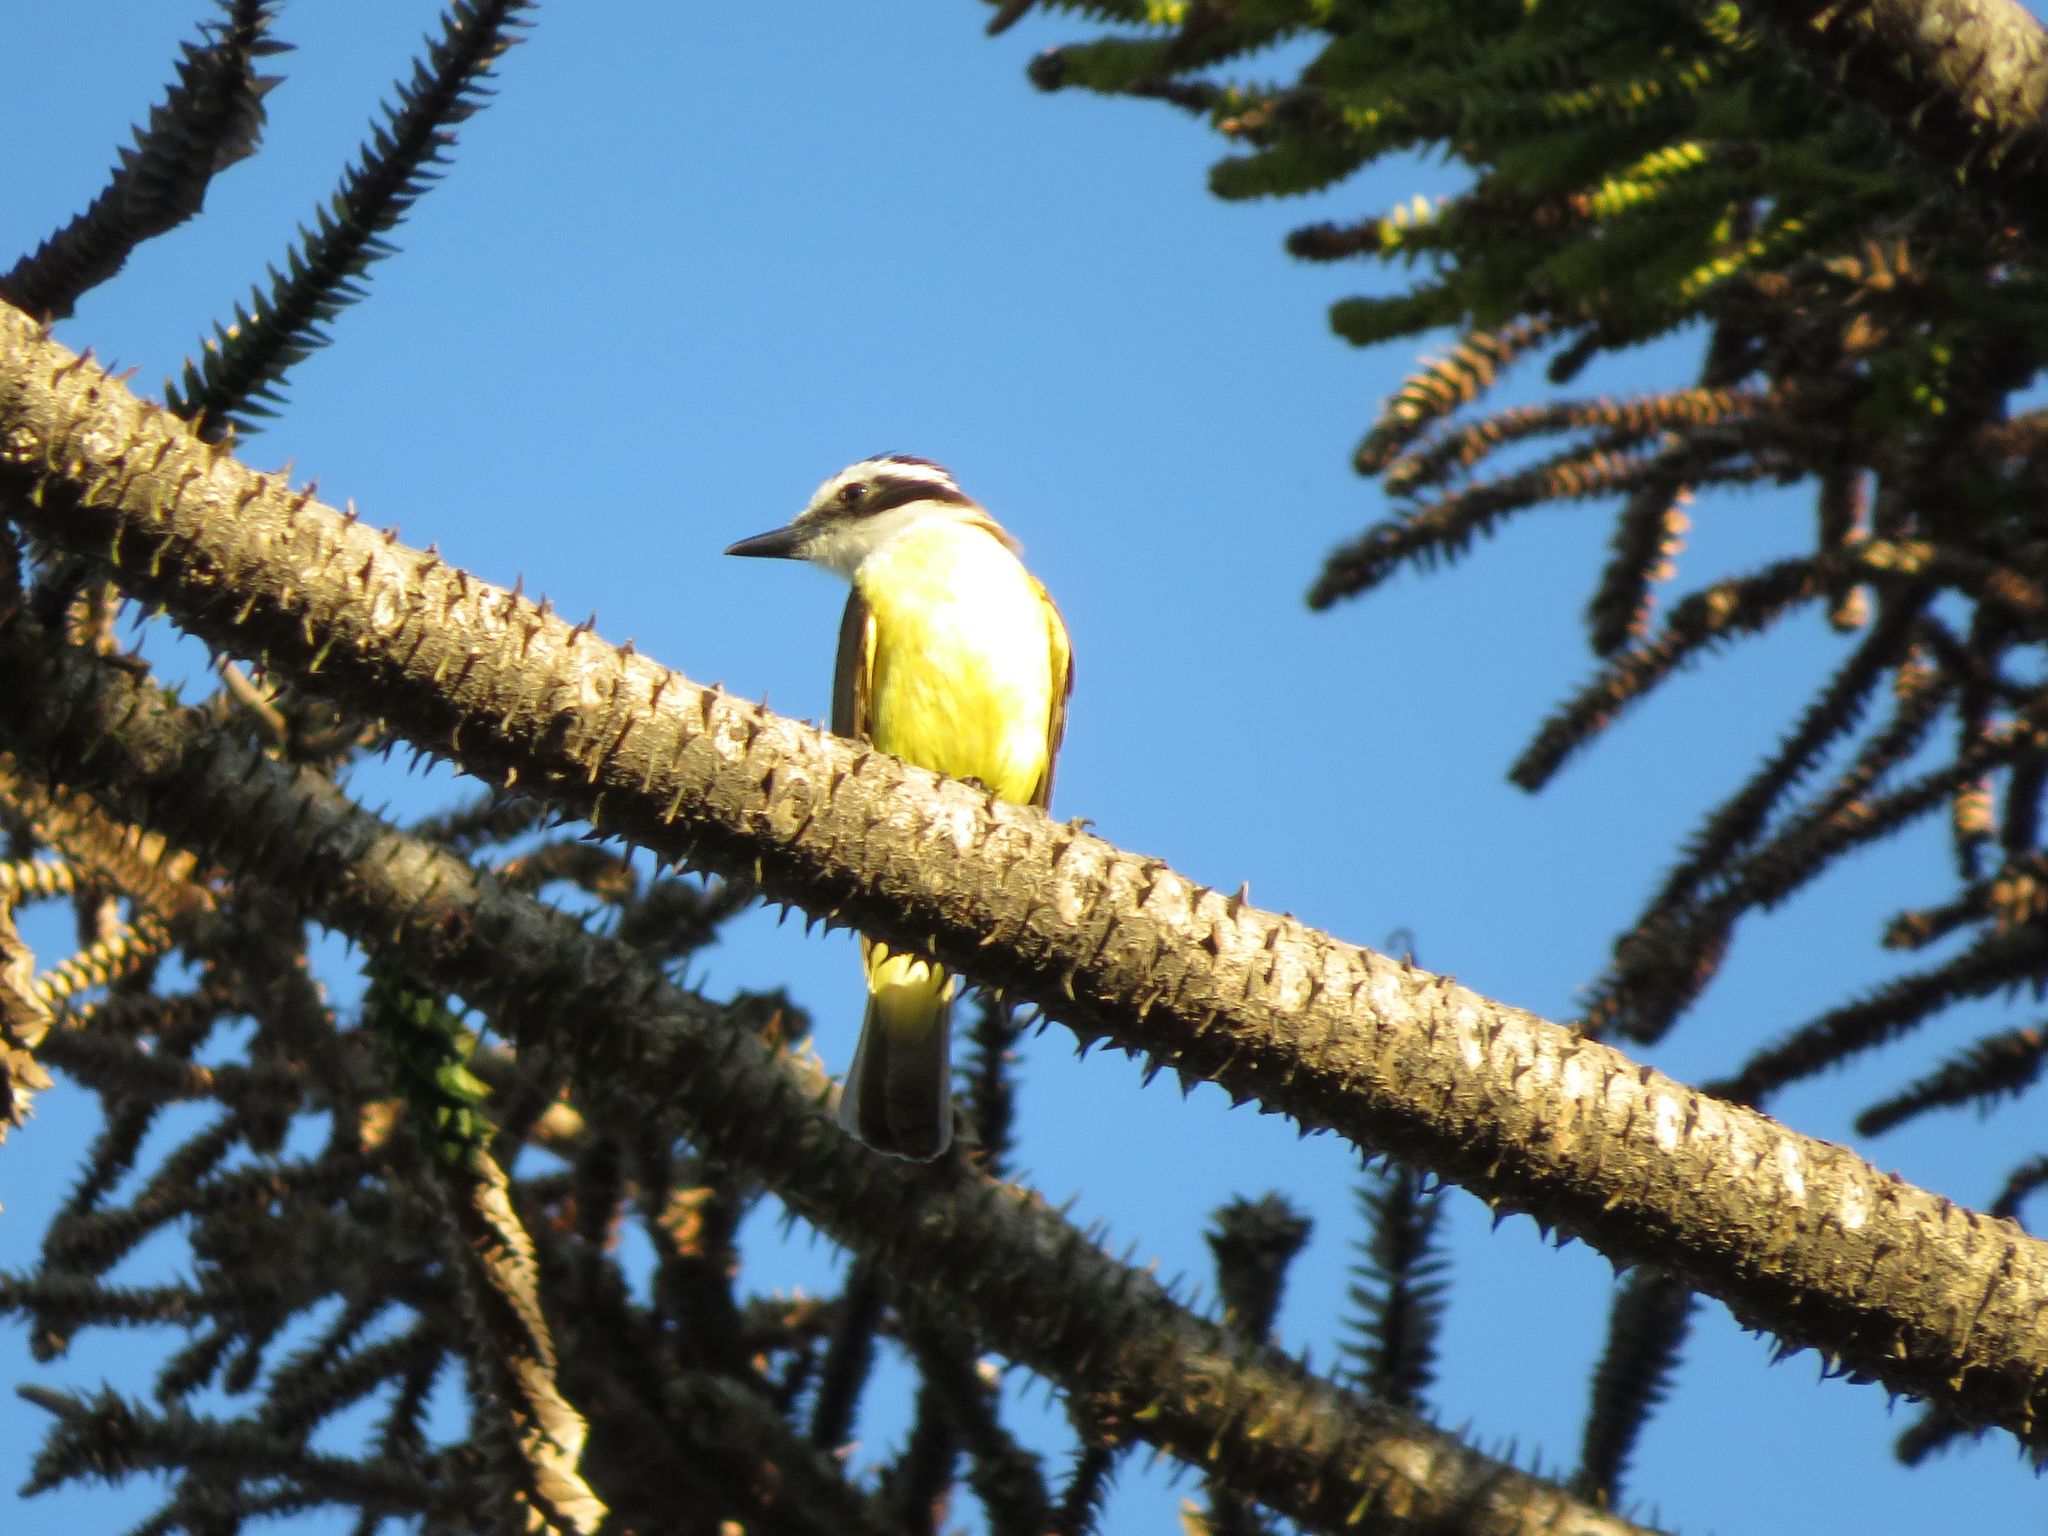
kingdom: Animalia
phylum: Chordata
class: Aves
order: Passeriformes
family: Tyrannidae
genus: Pitangus
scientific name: Pitangus sulphuratus
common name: Great kiskadee
